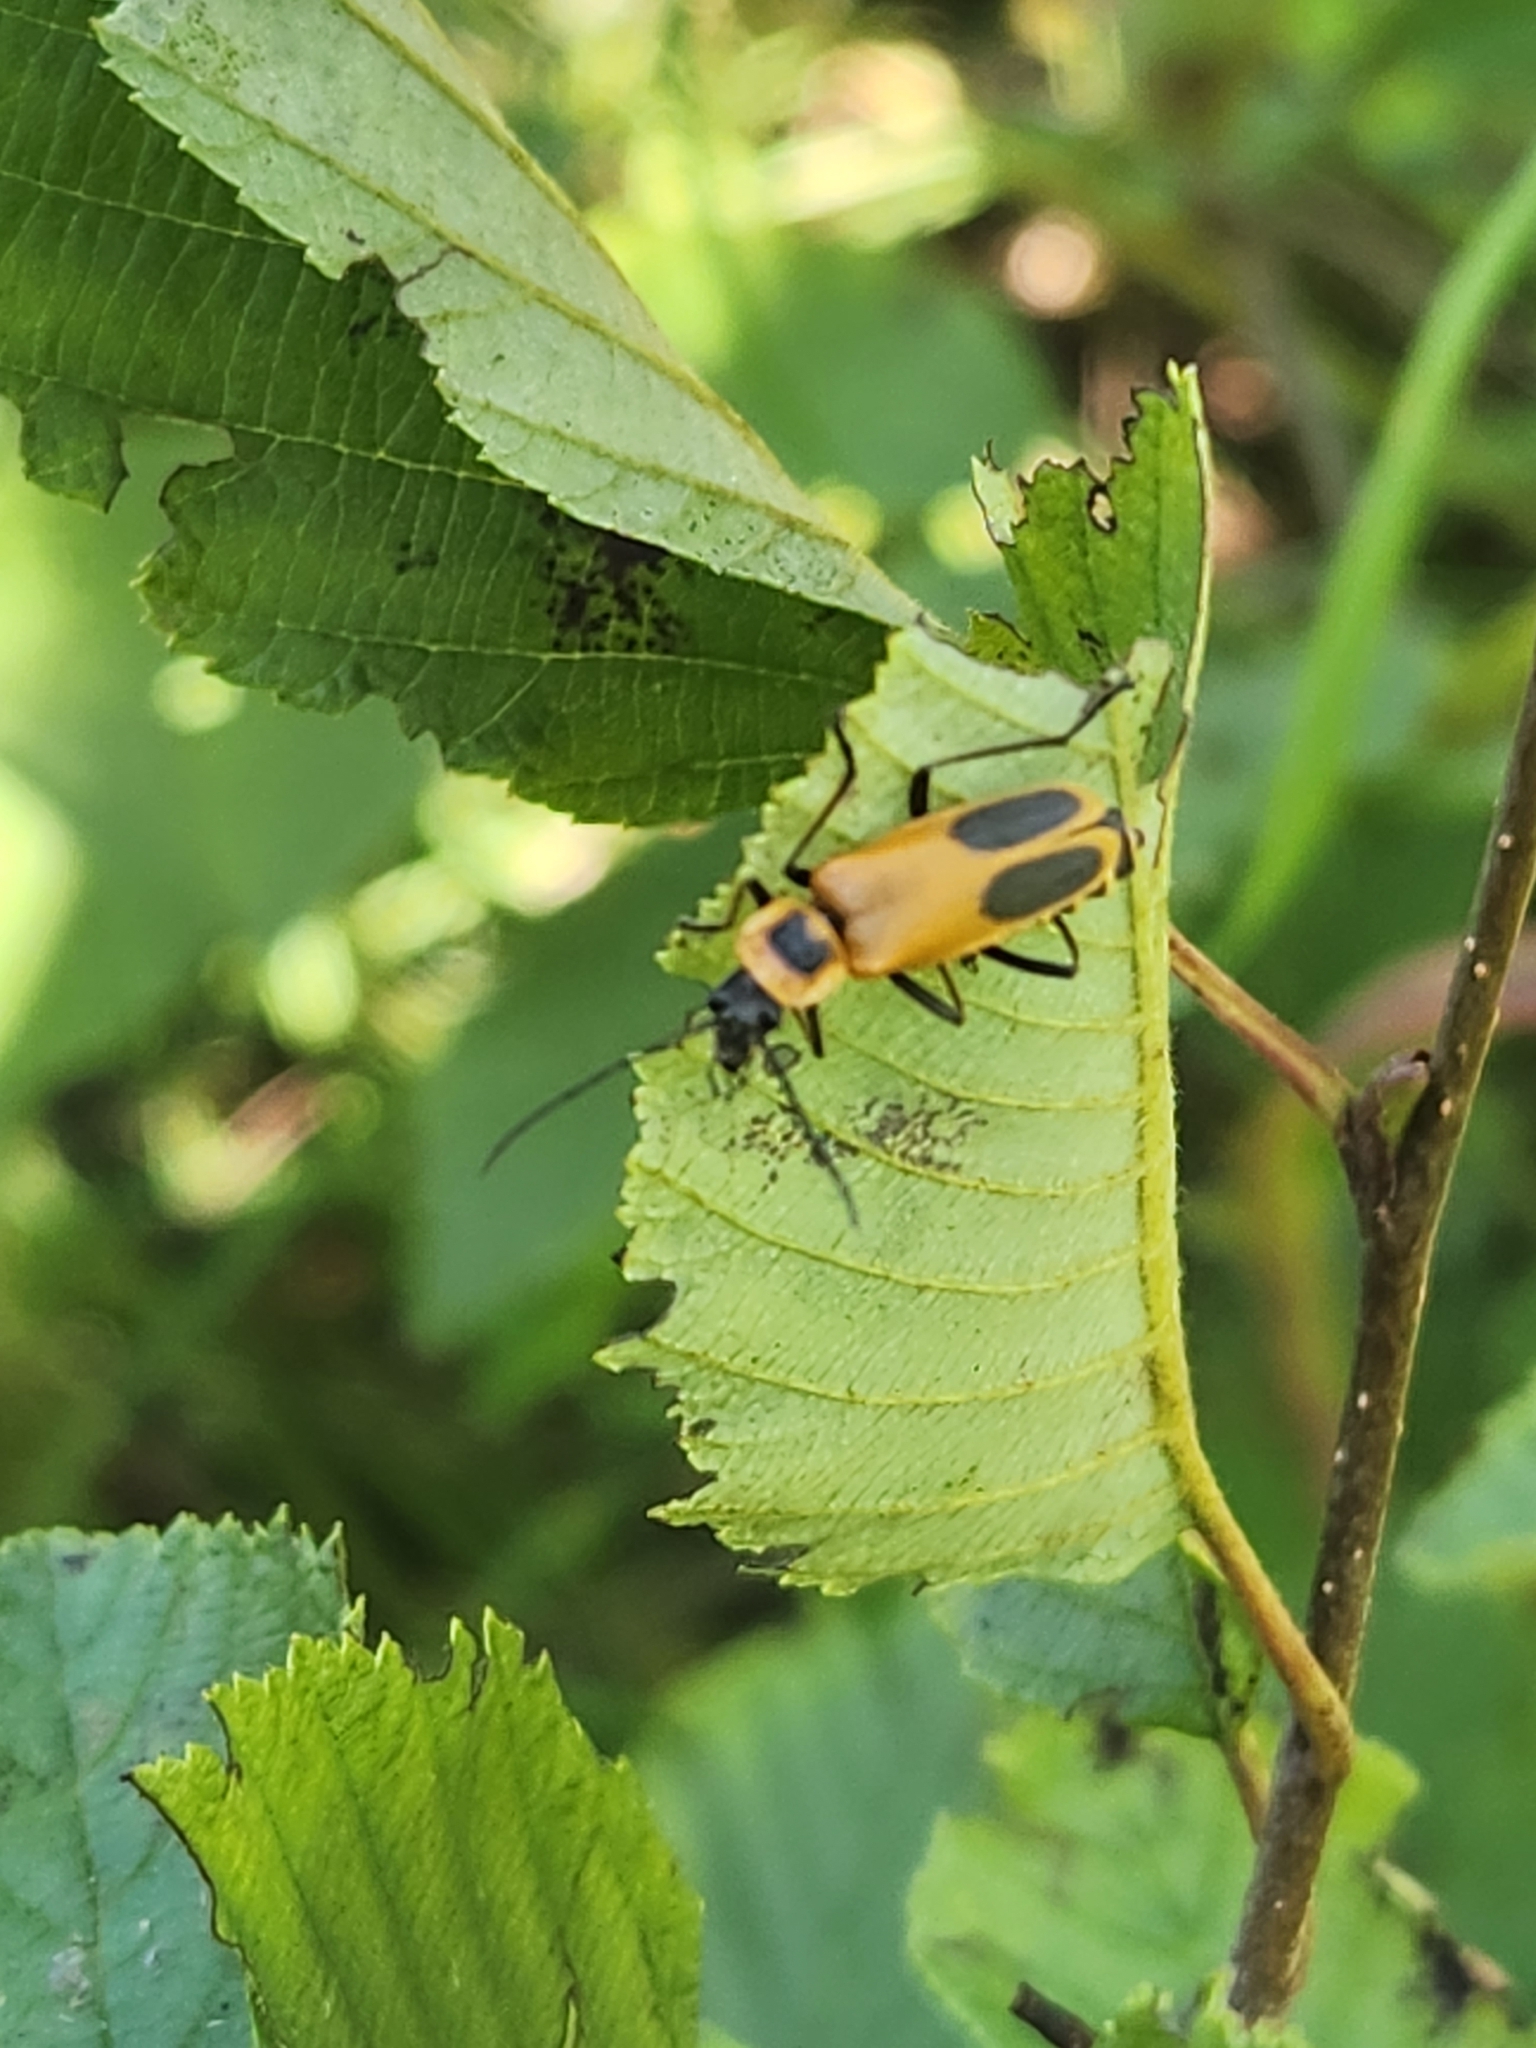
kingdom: Animalia
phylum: Arthropoda
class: Insecta
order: Coleoptera
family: Cantharidae
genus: Chauliognathus
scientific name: Chauliognathus pensylvanicus
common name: Goldenrod soldier beetle
